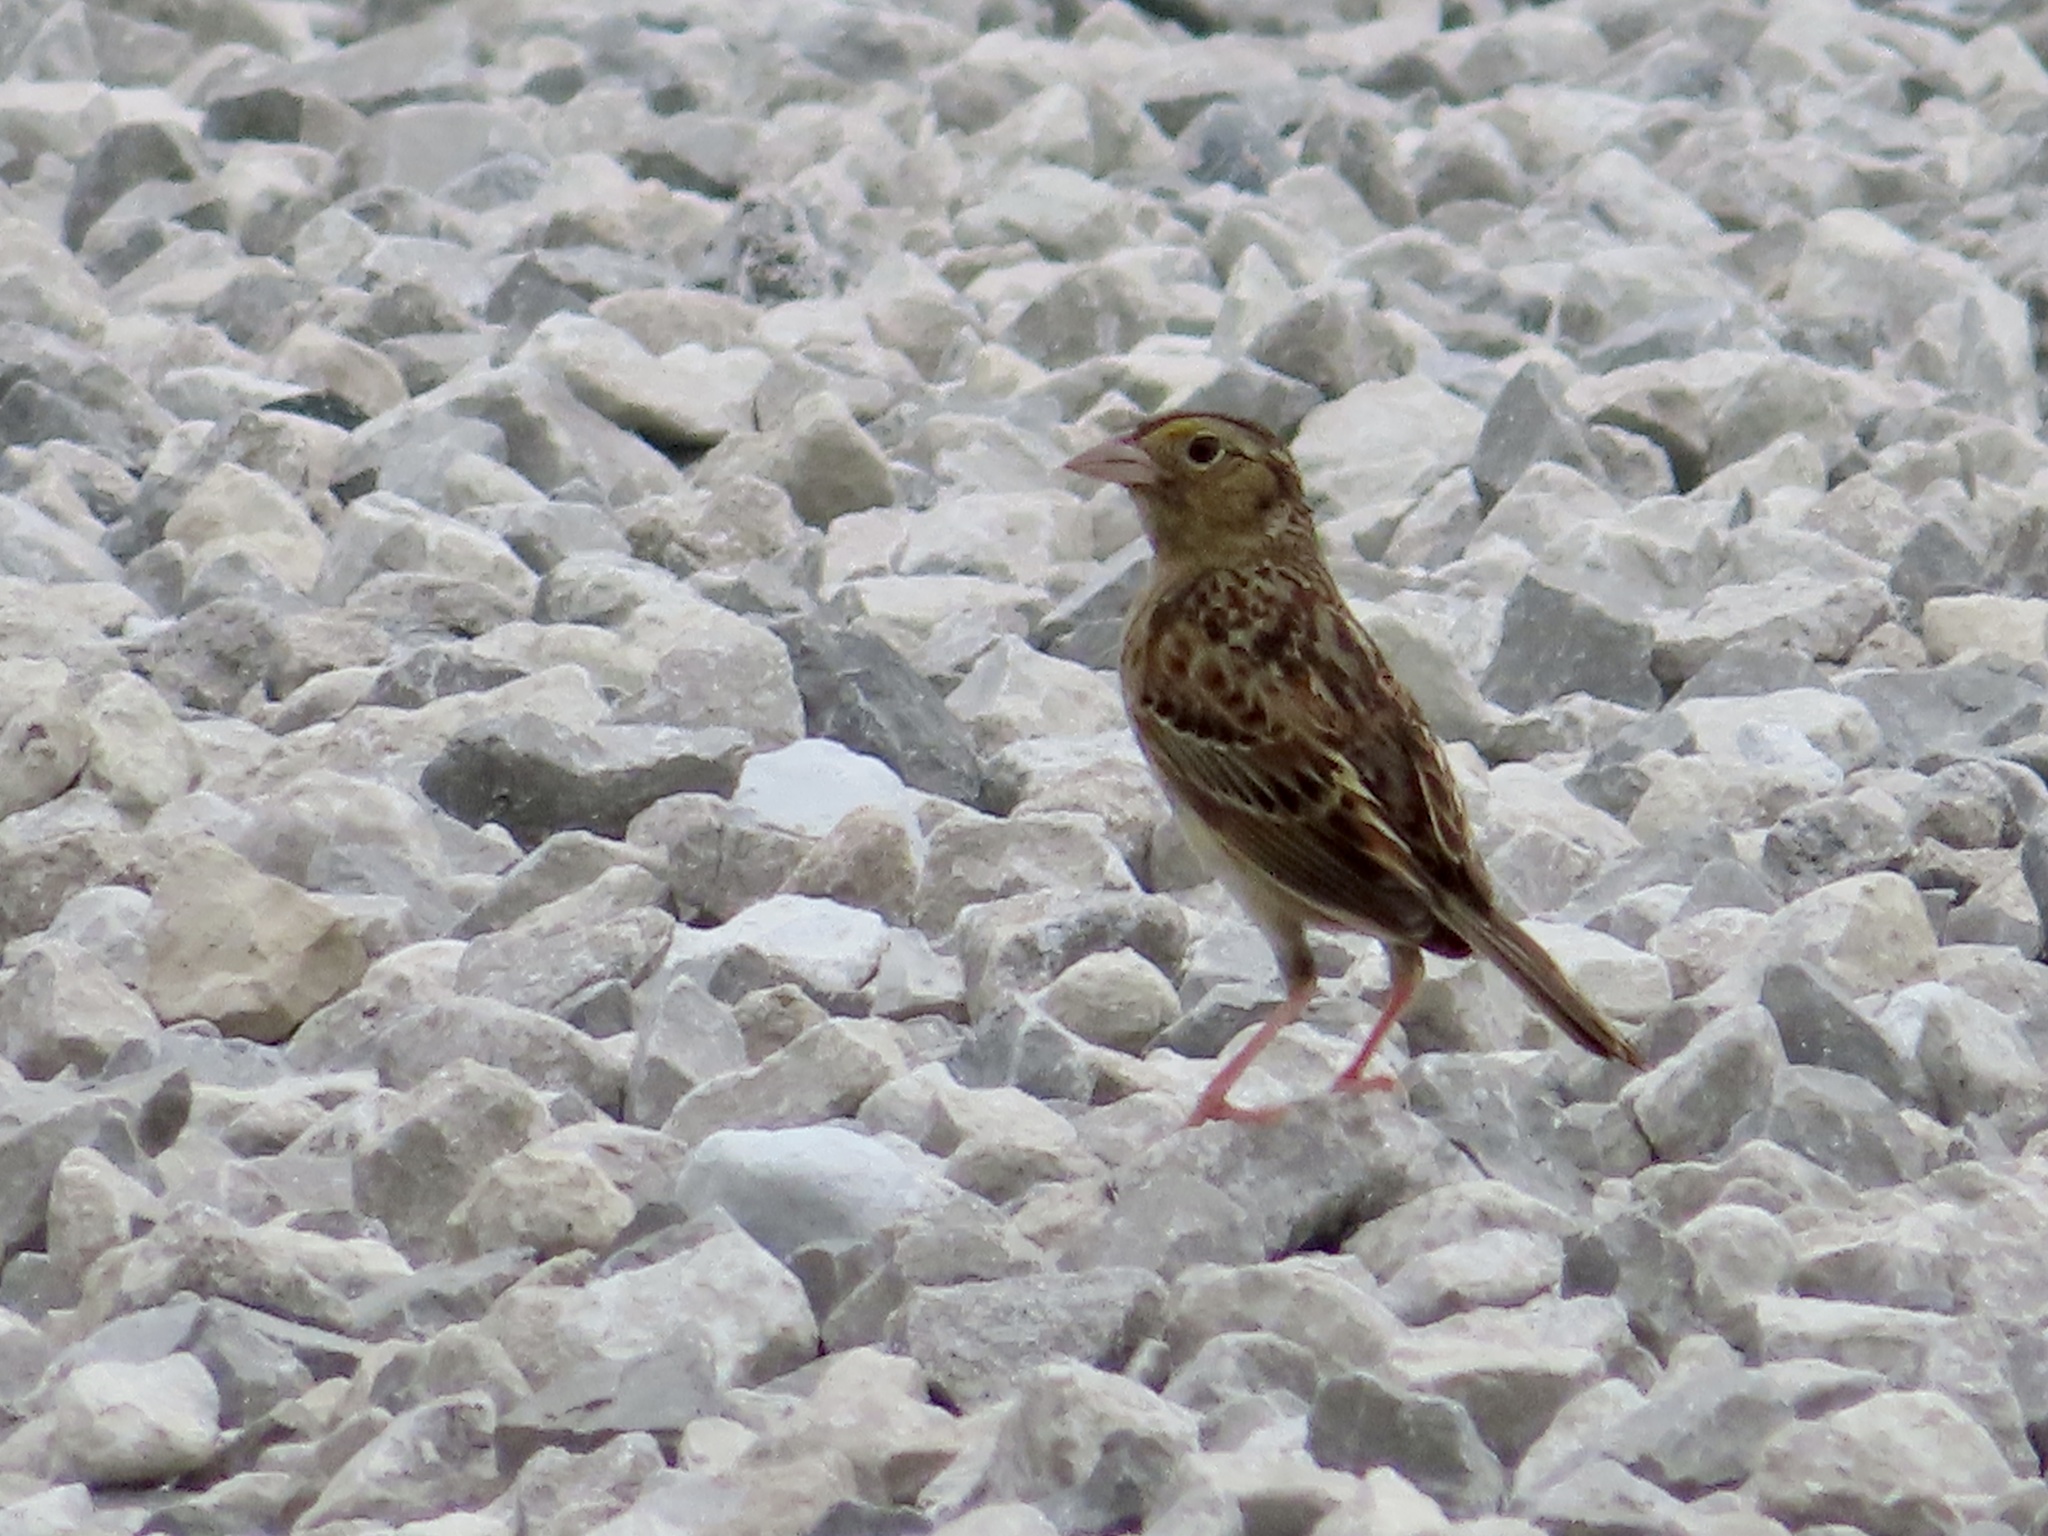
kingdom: Animalia
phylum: Chordata
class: Aves
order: Passeriformes
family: Passerellidae
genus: Ammodramus
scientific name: Ammodramus savannarum
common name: Grasshopper sparrow
